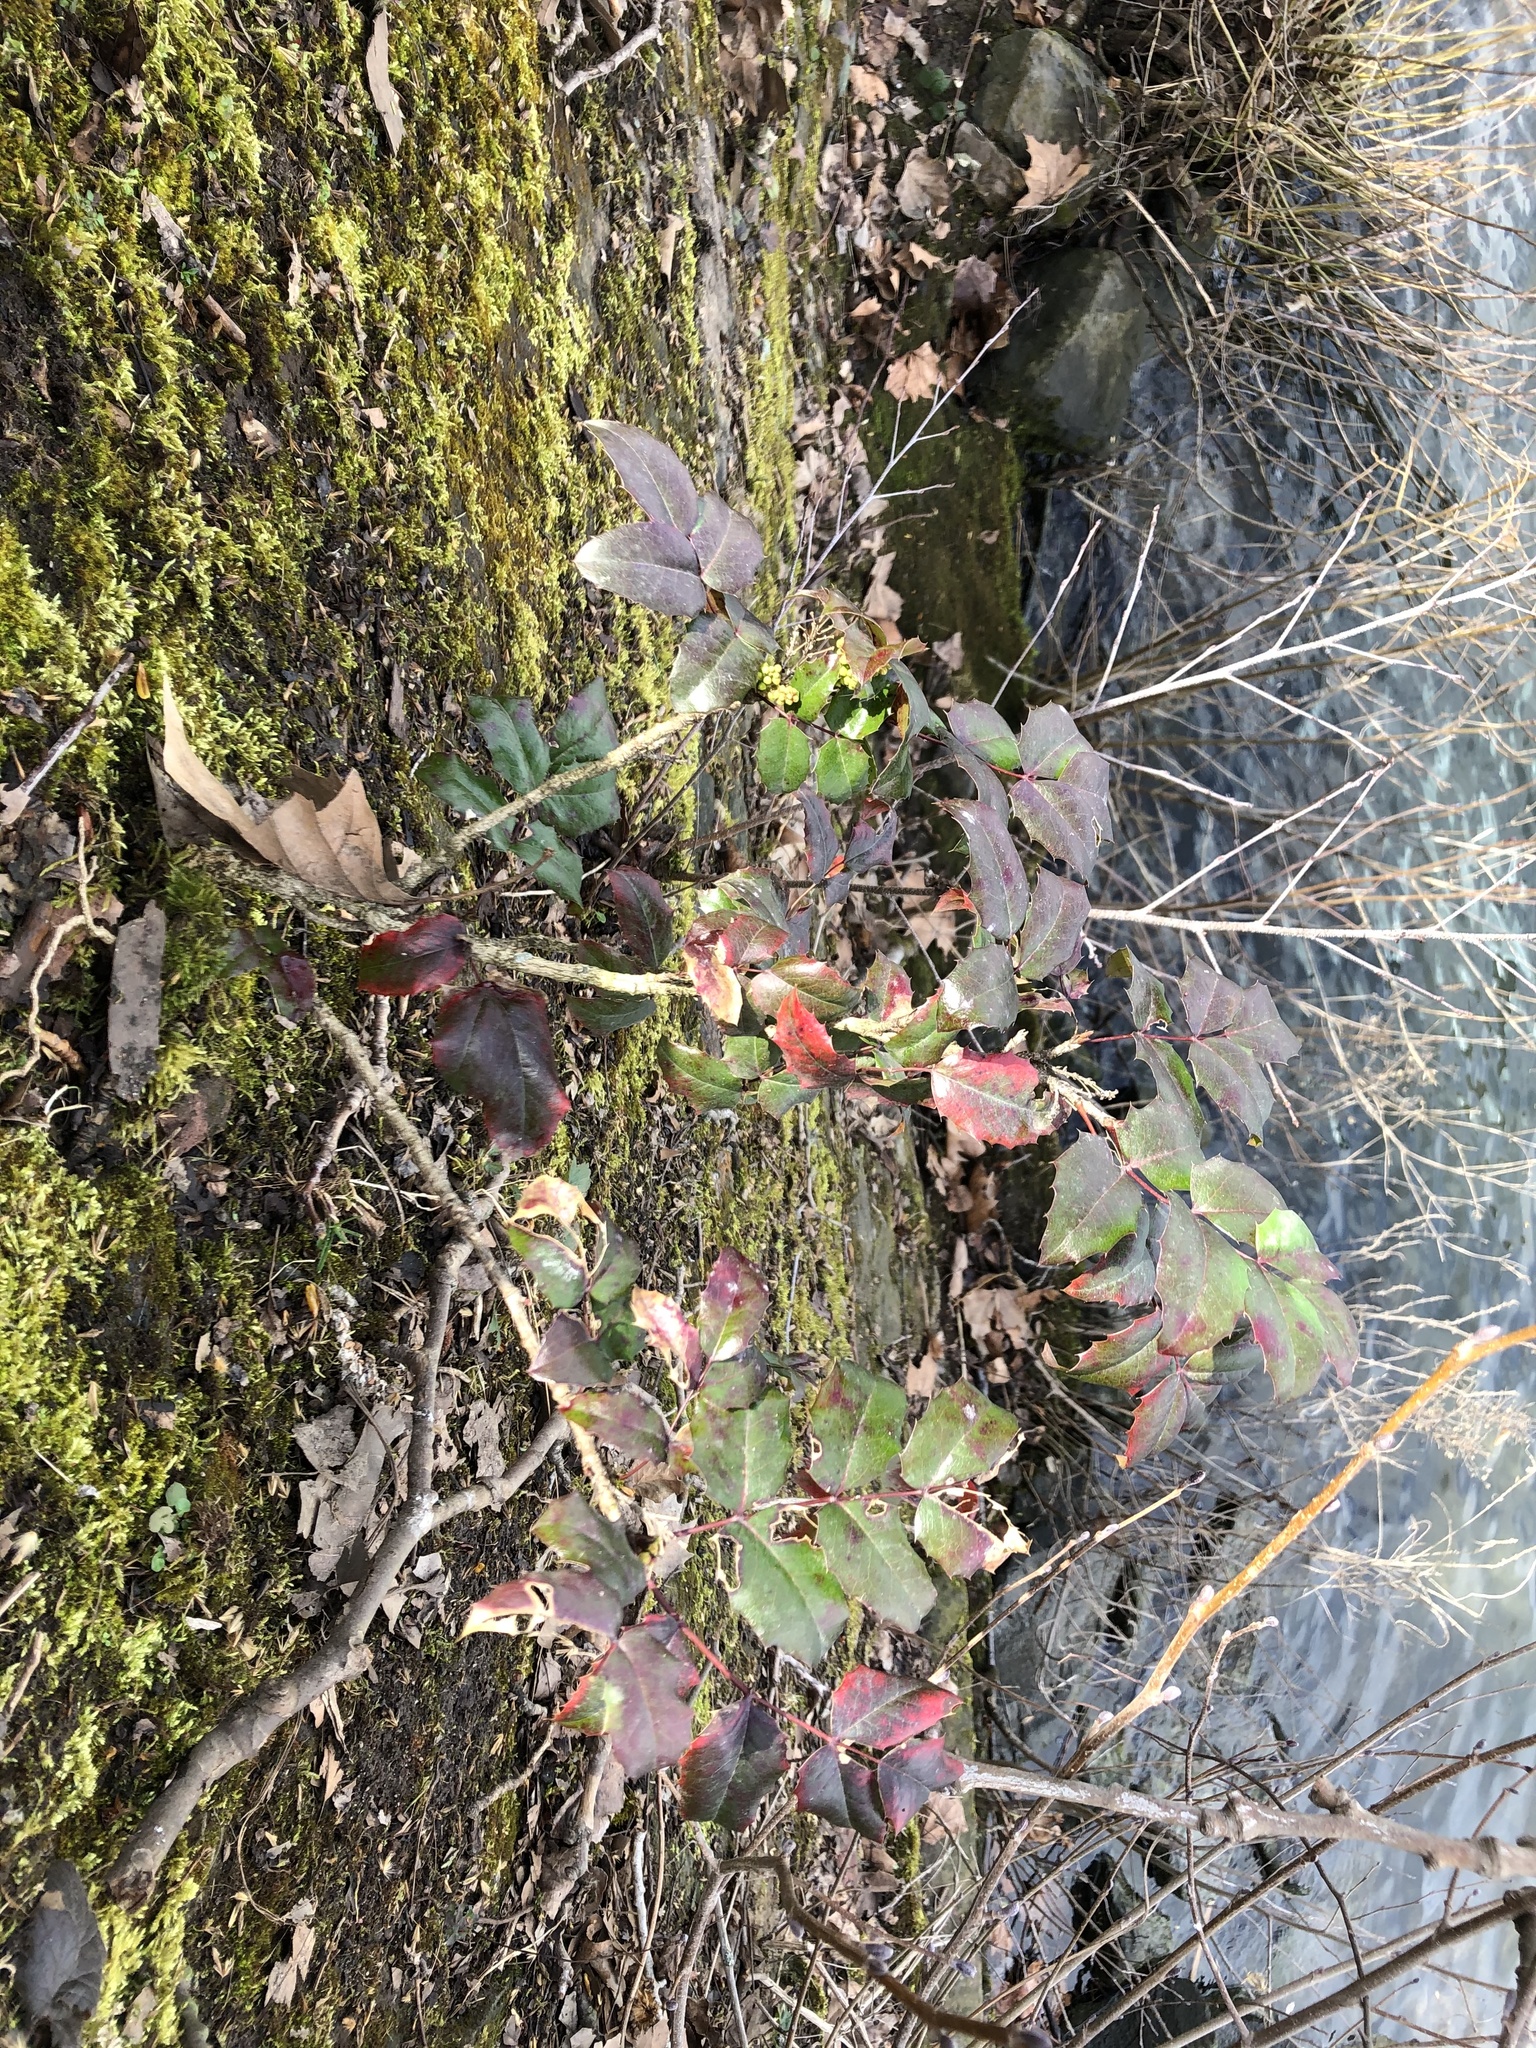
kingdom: Plantae
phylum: Tracheophyta
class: Magnoliopsida
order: Ranunculales
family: Berberidaceae
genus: Mahonia
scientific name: Mahonia aquifolium
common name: Oregon-grape
